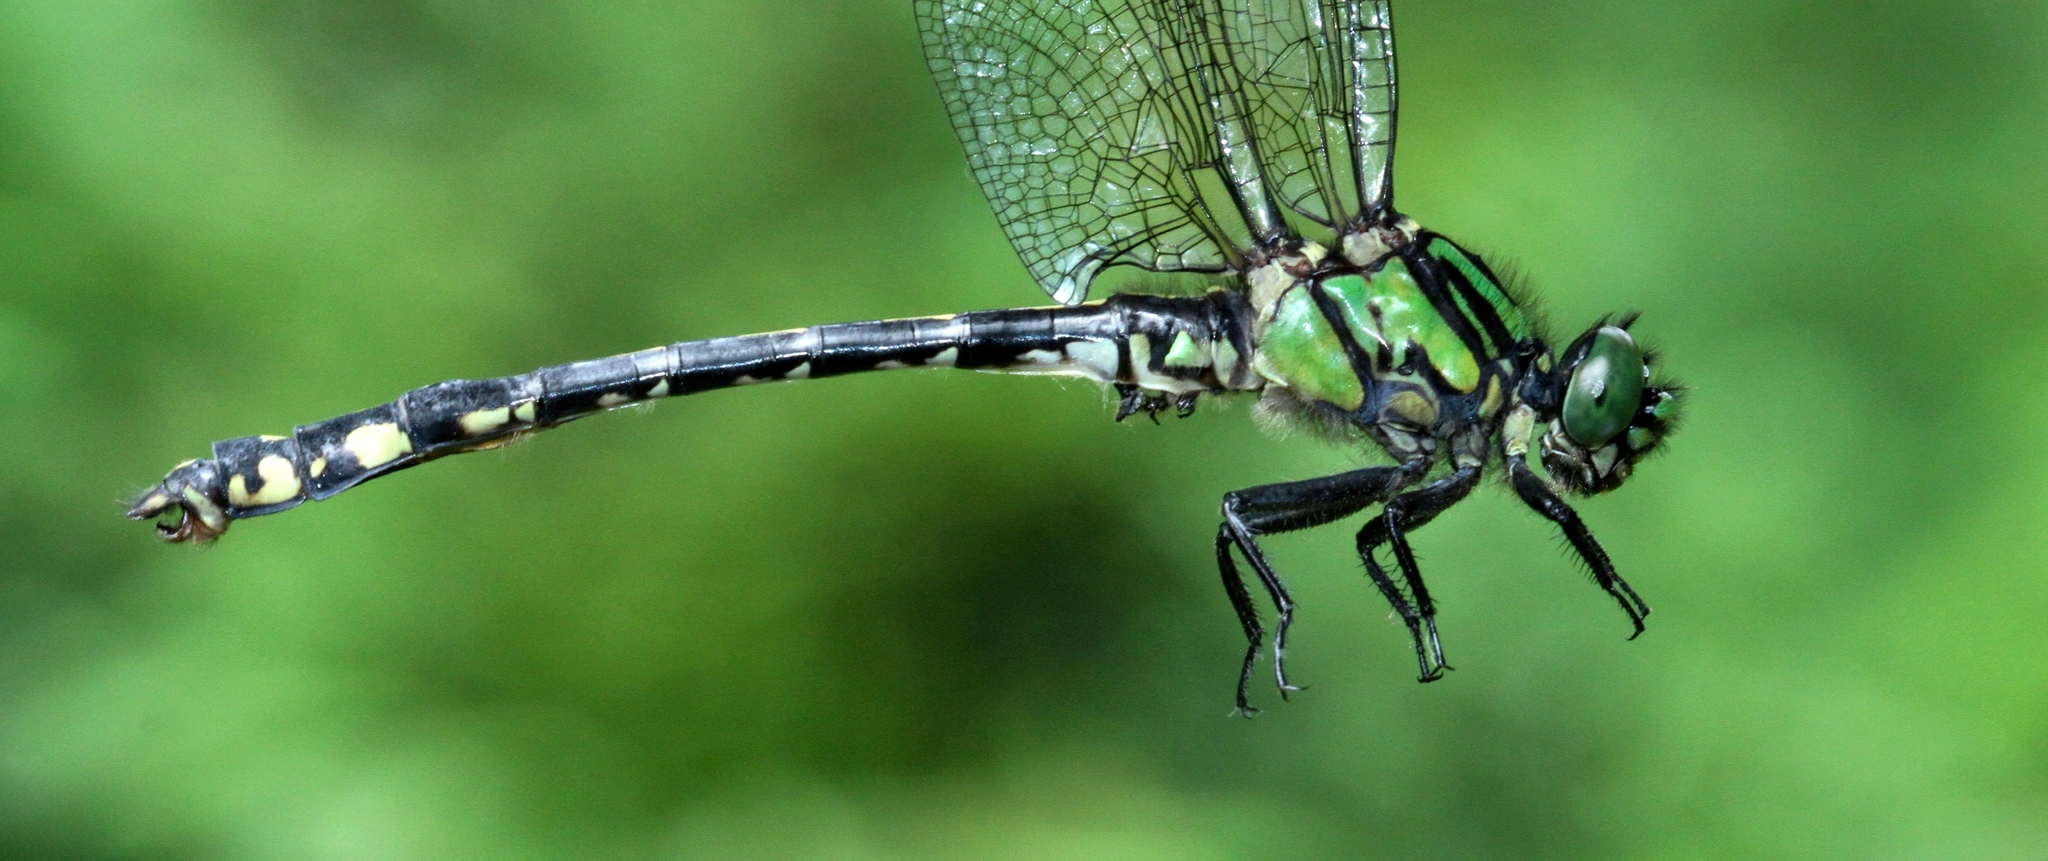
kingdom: Animalia
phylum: Arthropoda
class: Insecta
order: Odonata
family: Gomphidae
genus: Ophiogomphus
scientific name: Ophiogomphus anomalus
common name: Extra-striped snaketail
